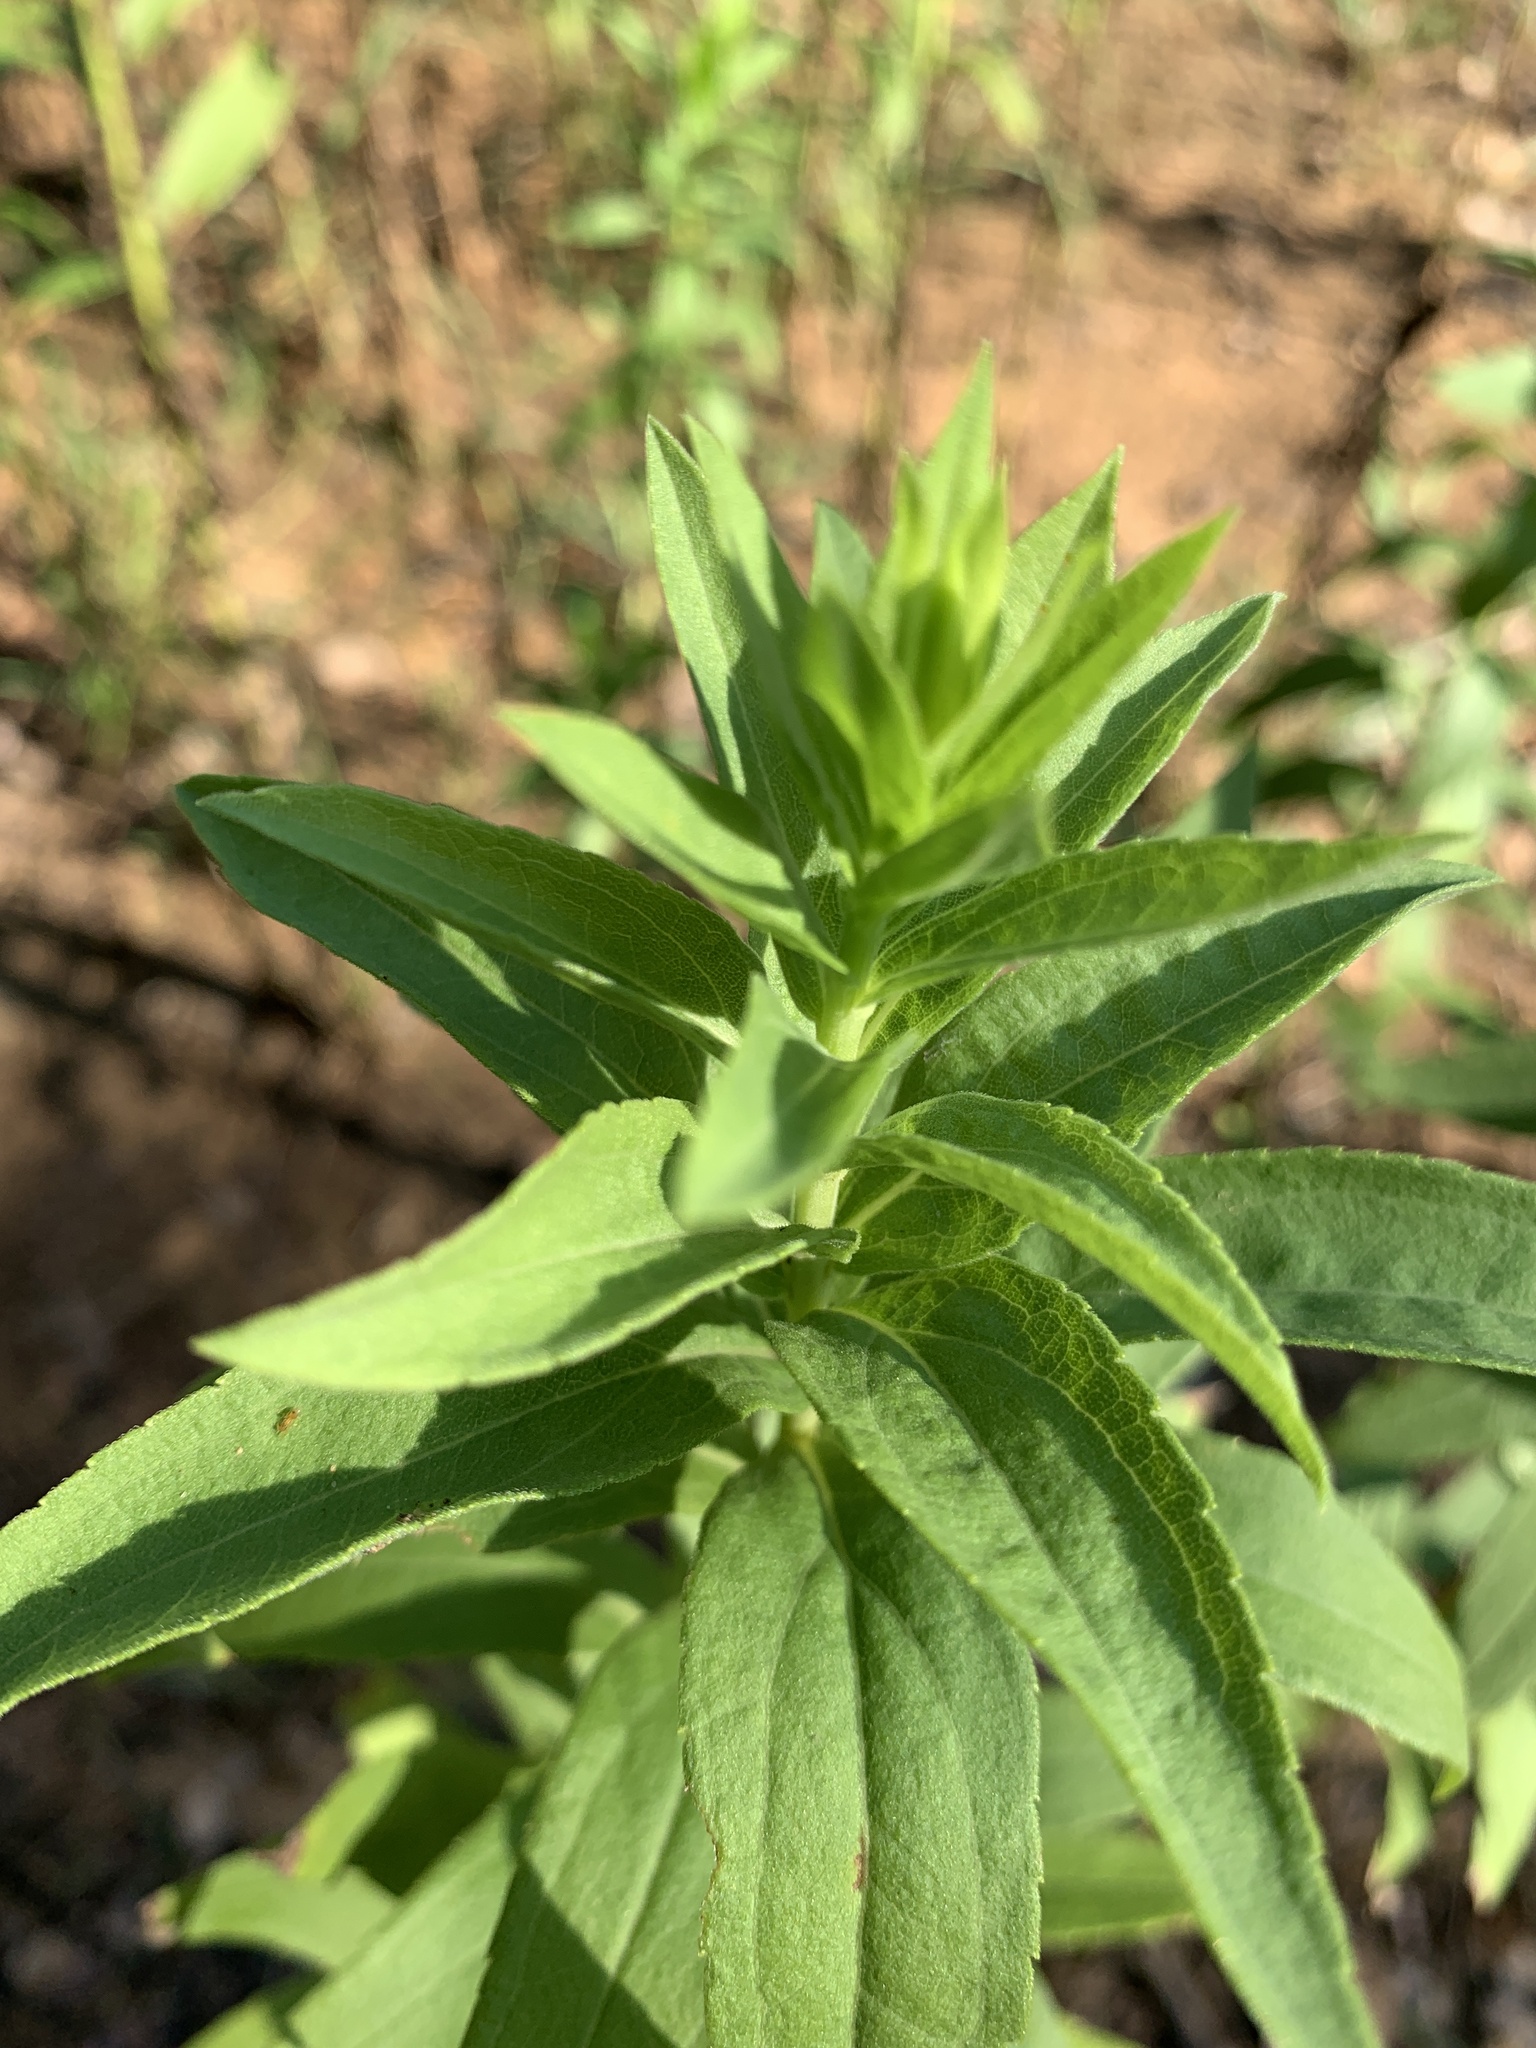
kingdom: Plantae
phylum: Tracheophyta
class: Magnoliopsida
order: Asterales
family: Asteraceae
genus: Solidago
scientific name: Solidago altissima
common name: Late goldenrod
